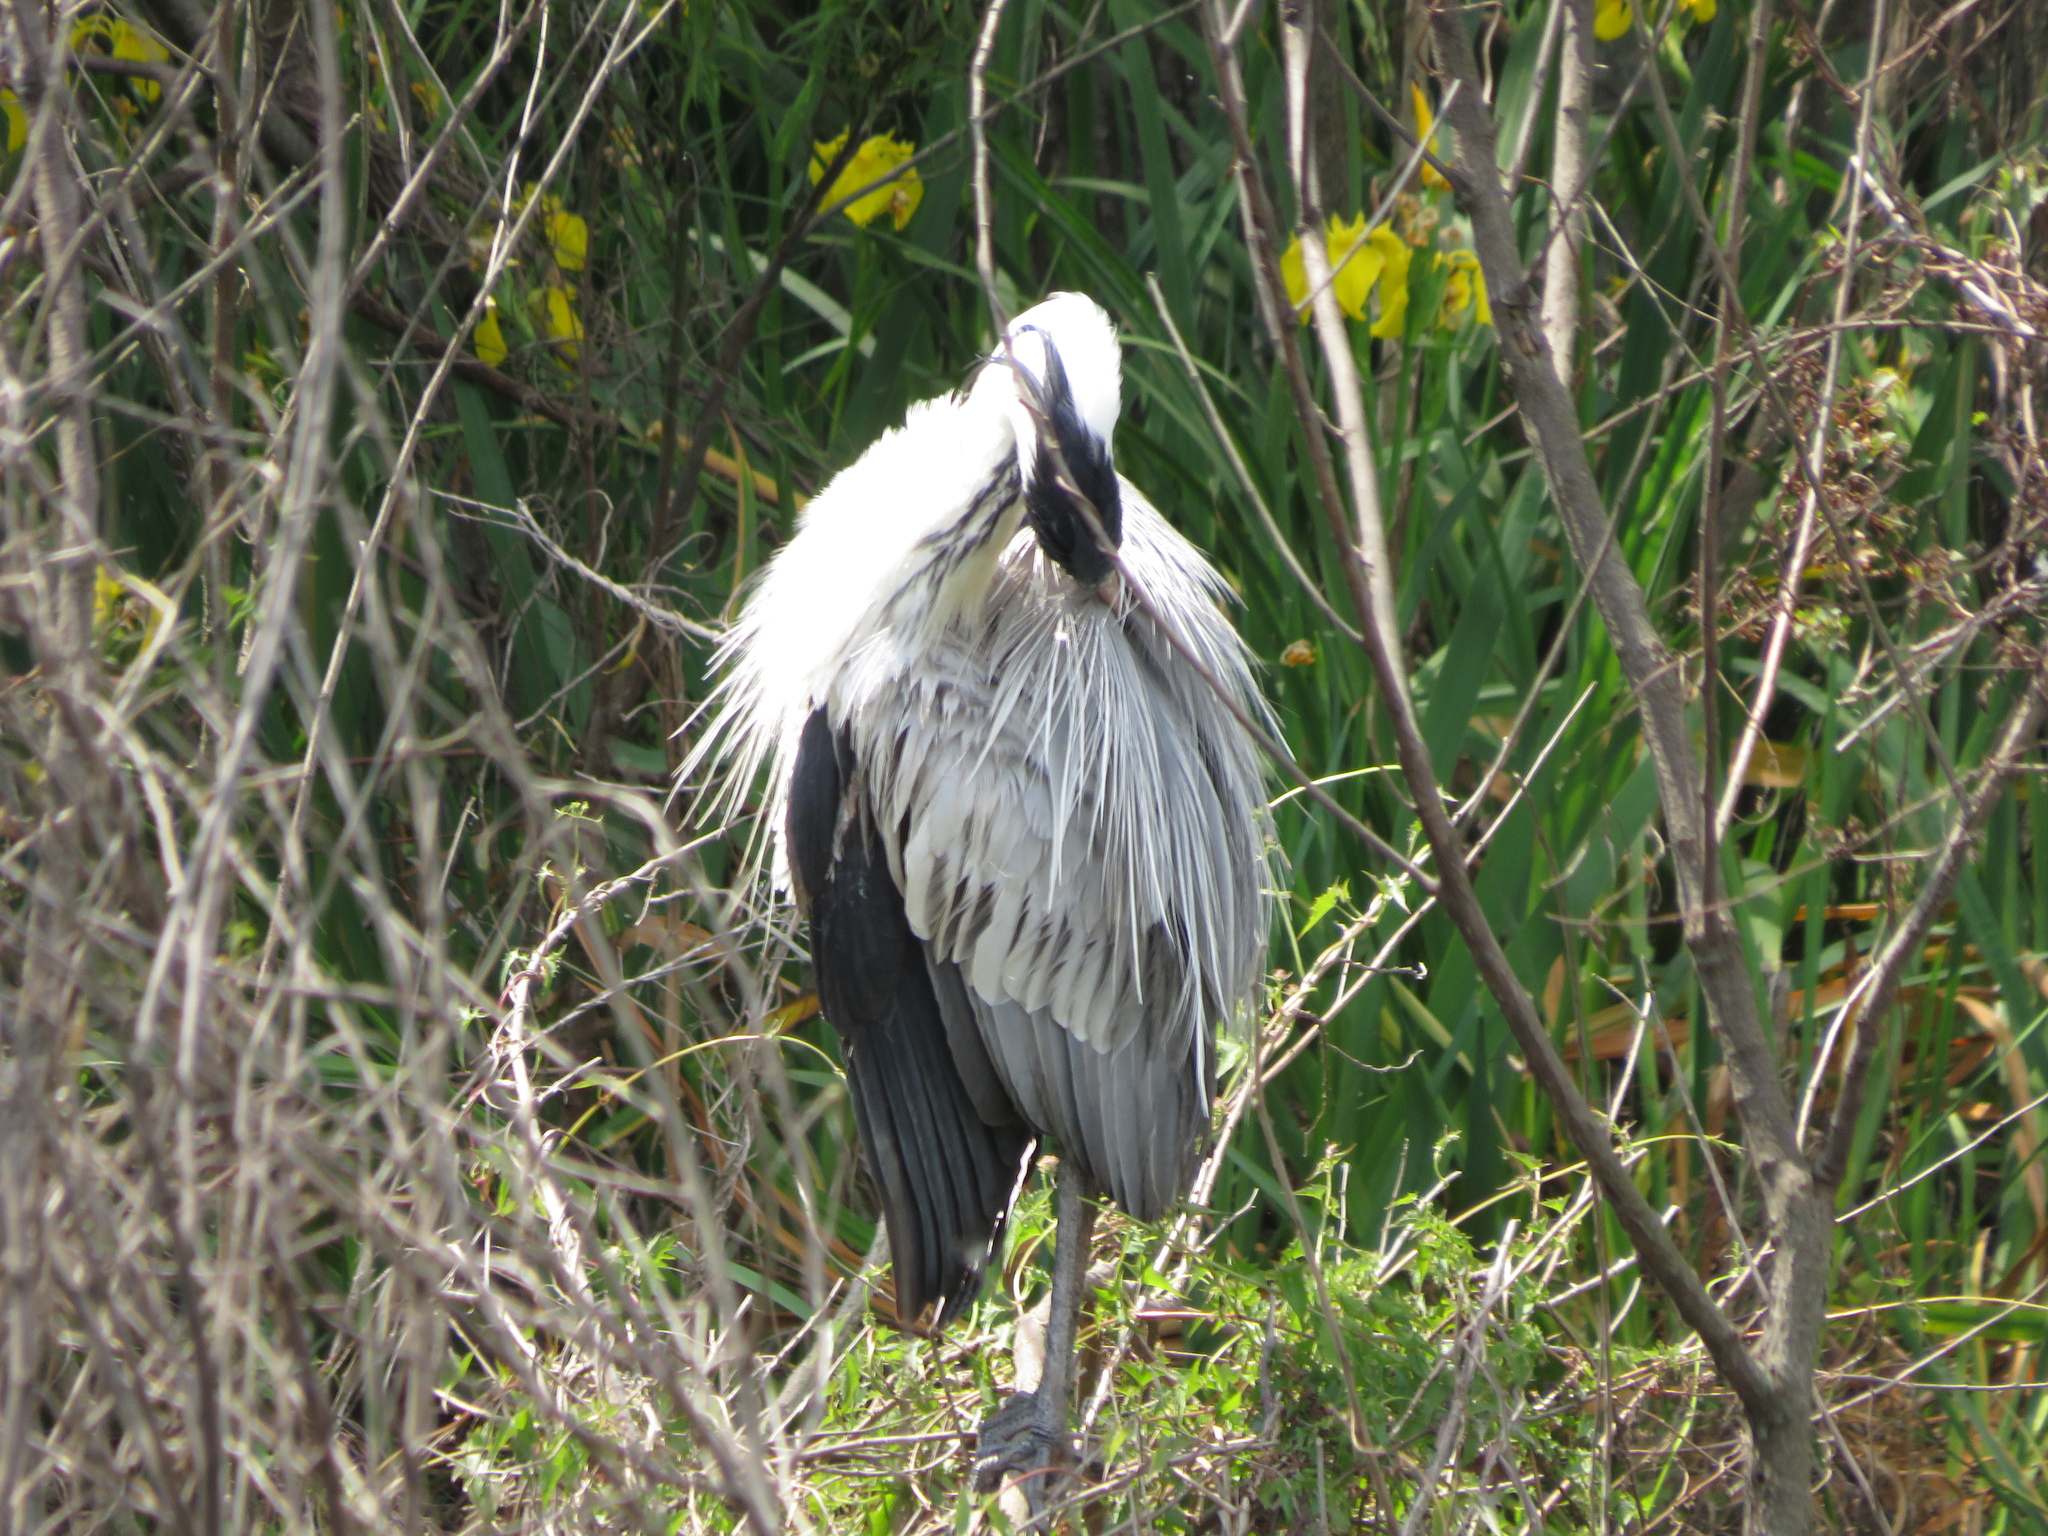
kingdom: Animalia
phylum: Chordata
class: Aves
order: Pelecaniformes
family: Ardeidae
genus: Ardea
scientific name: Ardea cocoi
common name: Cocoi heron
